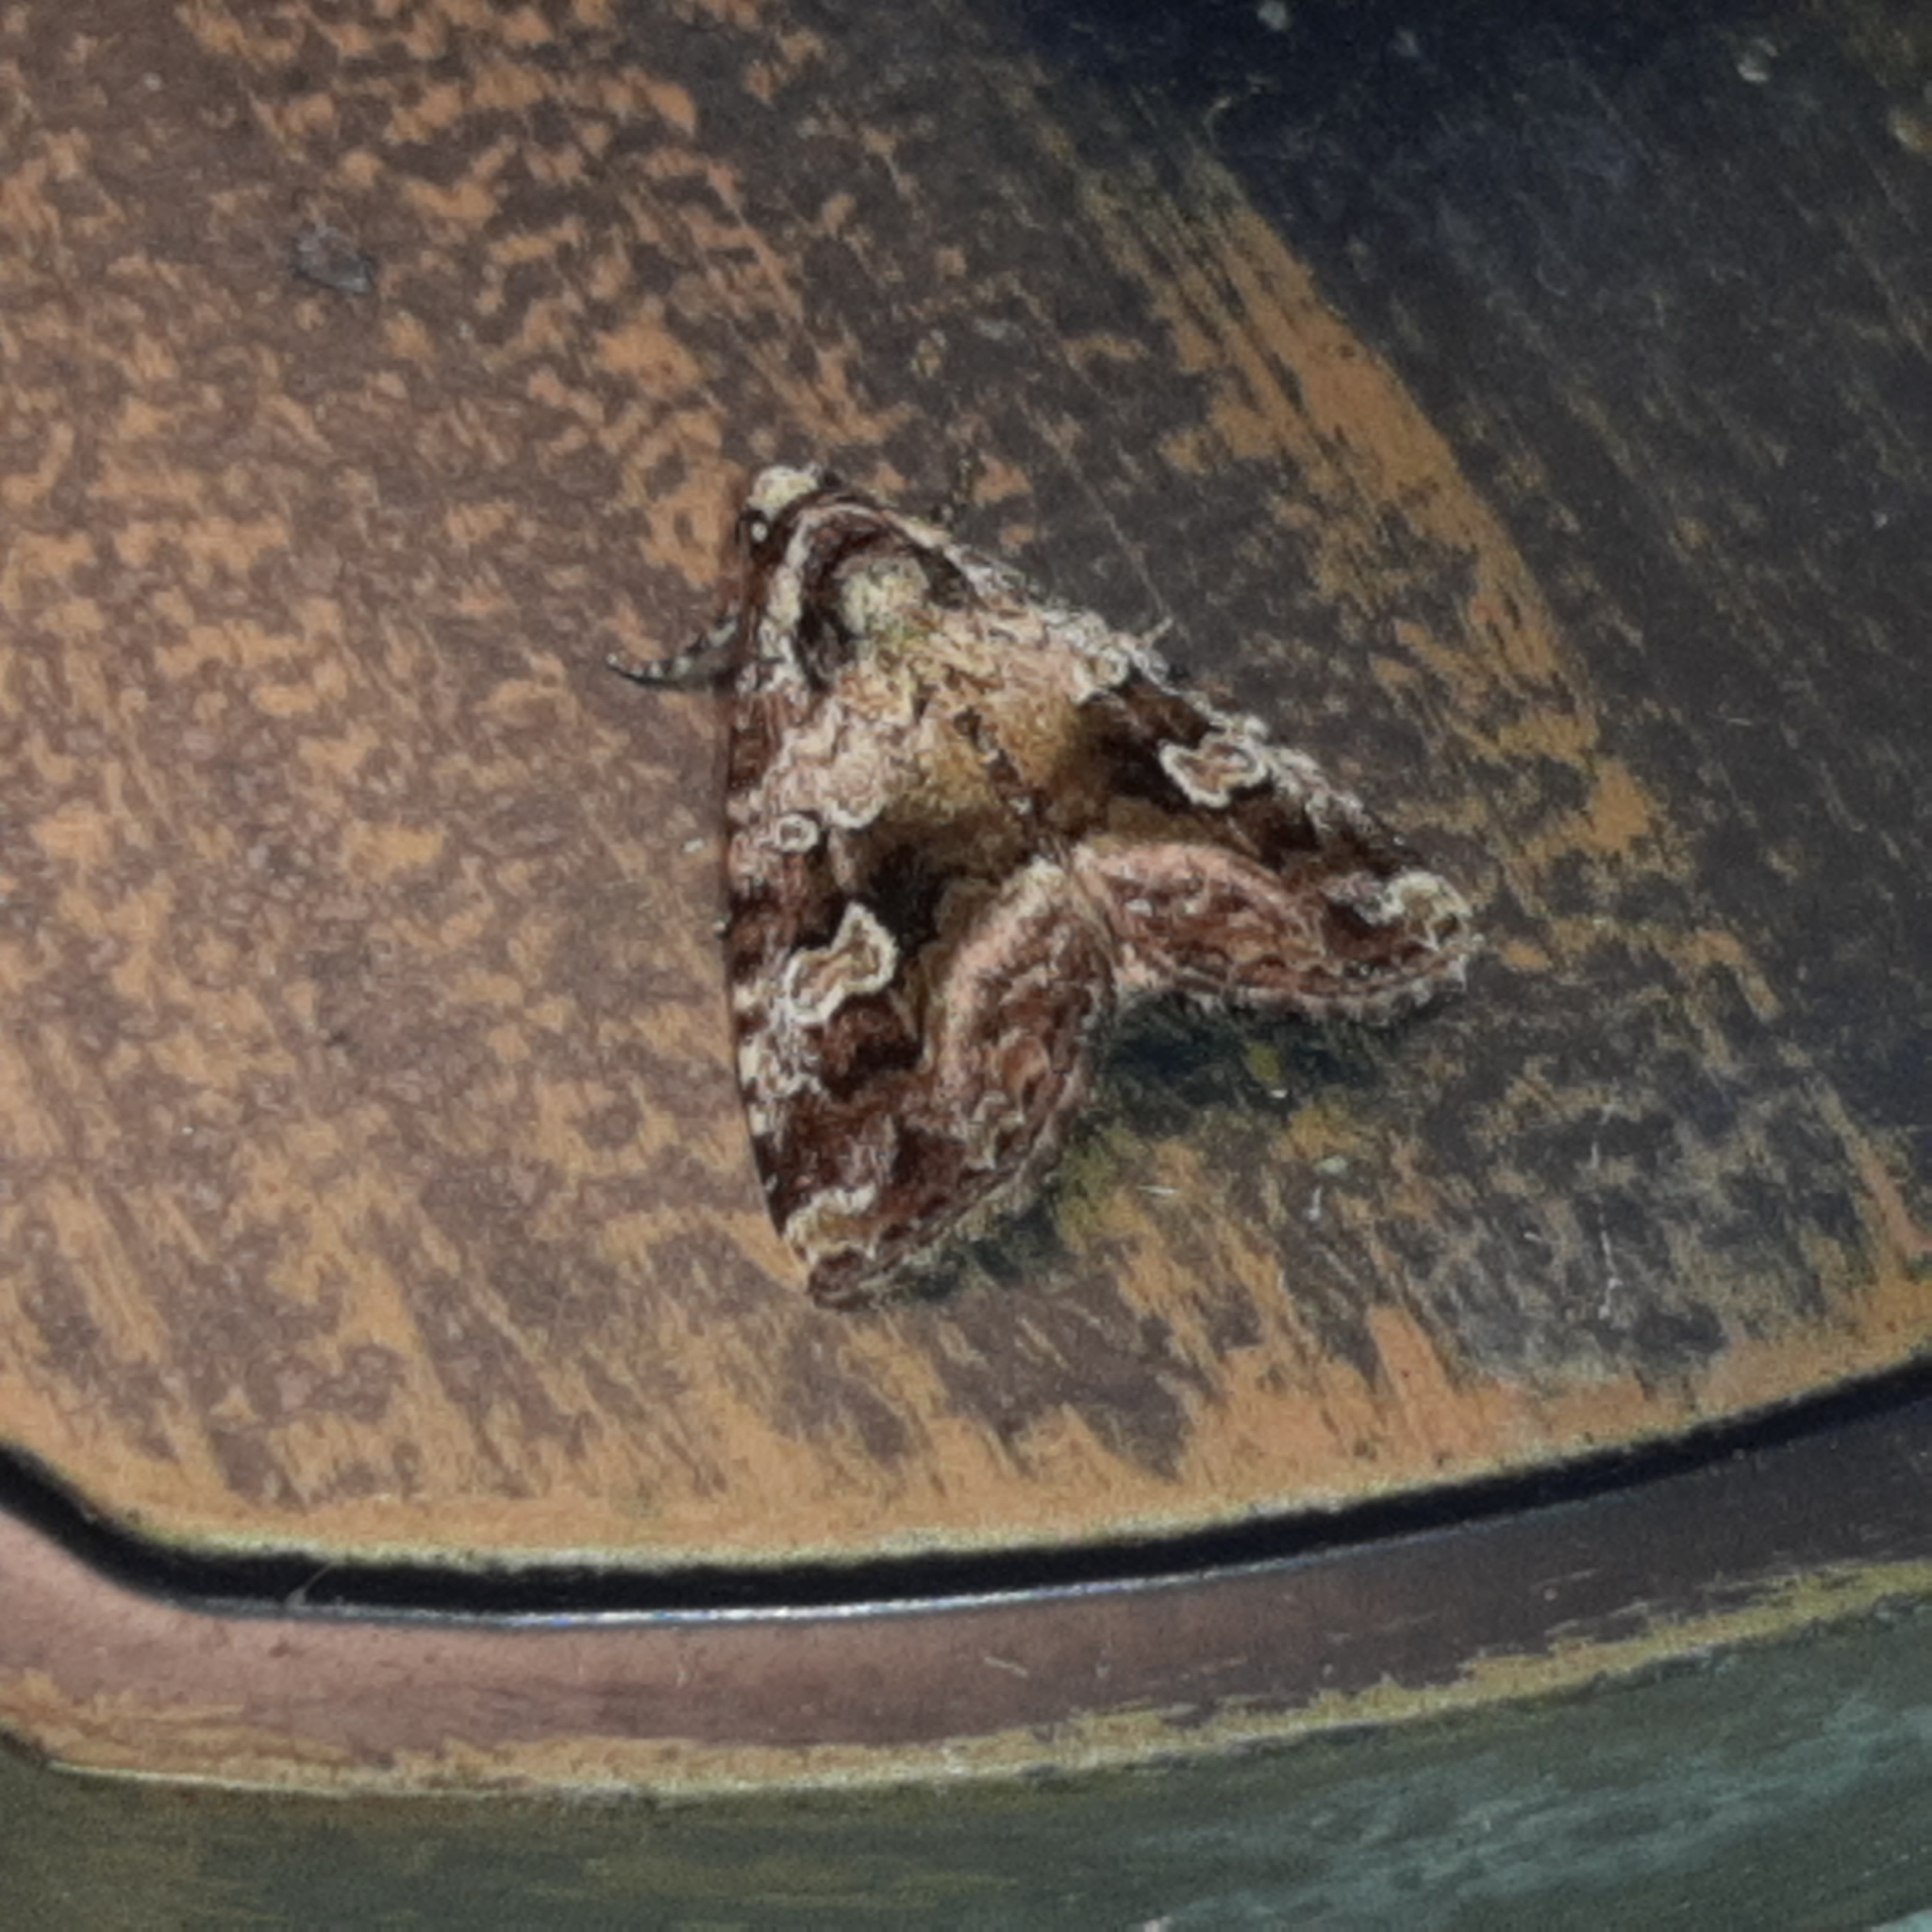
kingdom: Animalia
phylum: Arthropoda
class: Insecta
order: Lepidoptera
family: Noctuidae
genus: Mictochroa
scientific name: Mictochroa zonella
